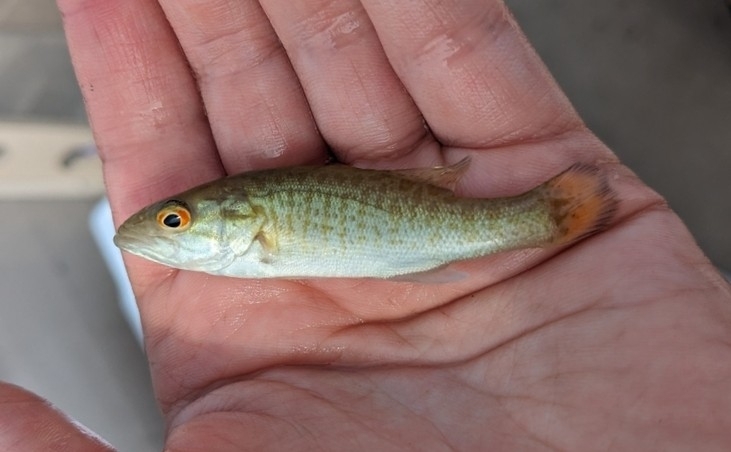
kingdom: Animalia
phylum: Chordata
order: Perciformes
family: Centrarchidae
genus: Micropterus
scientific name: Micropterus dolomieu
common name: Smallmouth bass
